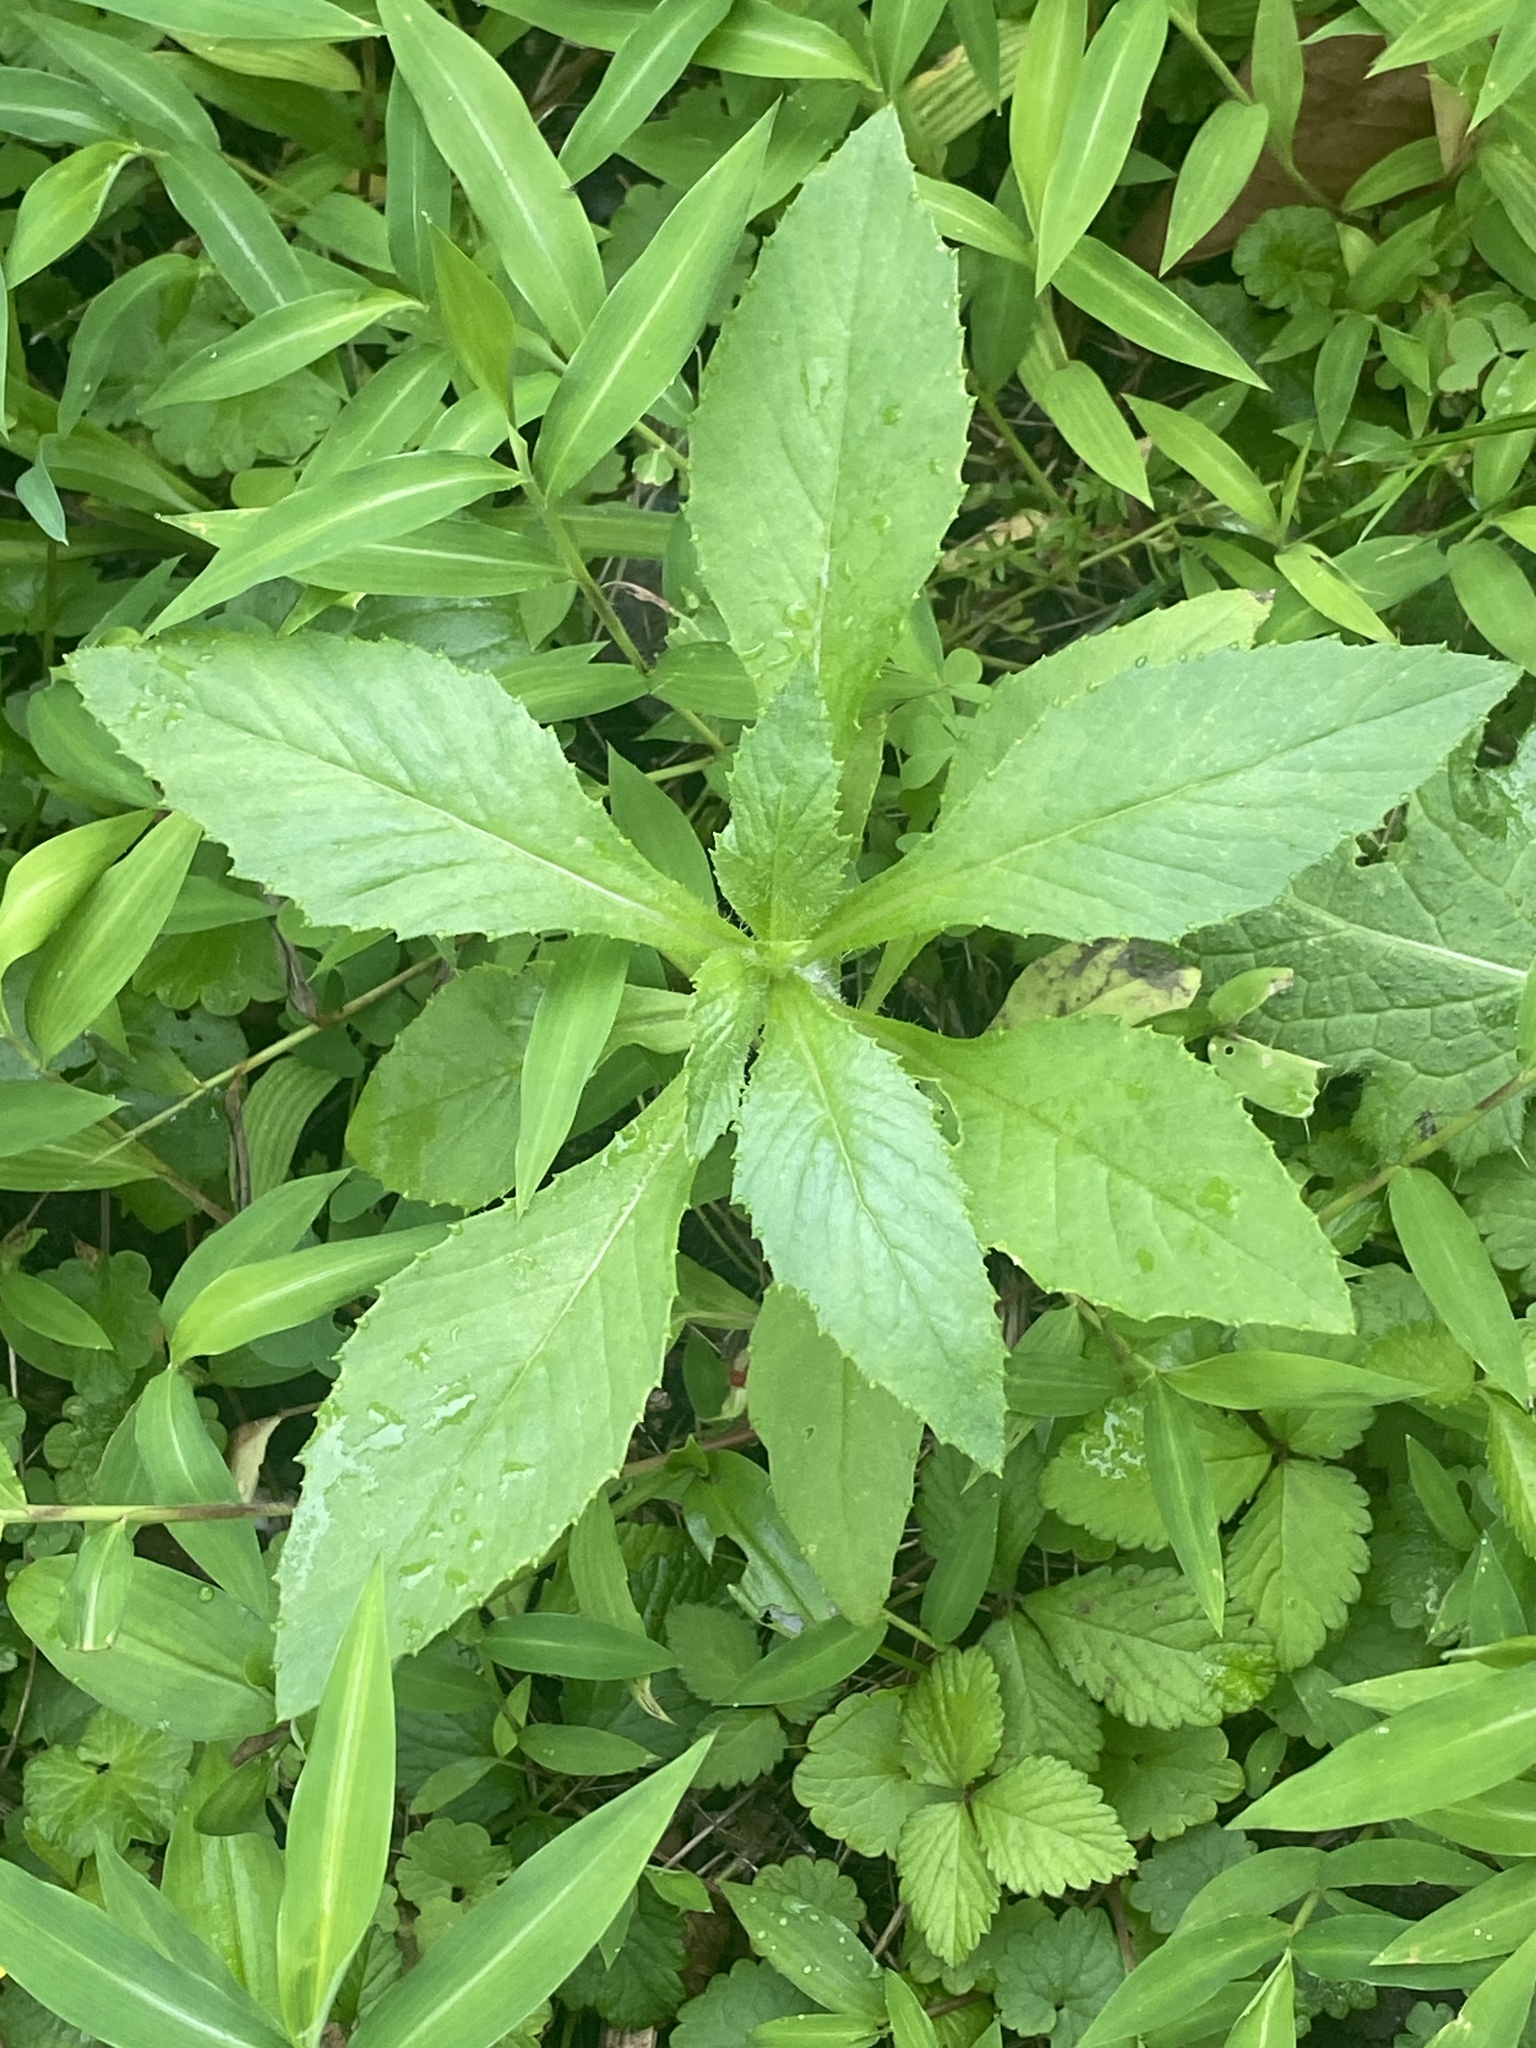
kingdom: Plantae
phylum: Tracheophyta
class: Magnoliopsida
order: Asterales
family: Asteraceae
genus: Erechtites
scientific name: Erechtites hieraciifolius
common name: American burnweed
